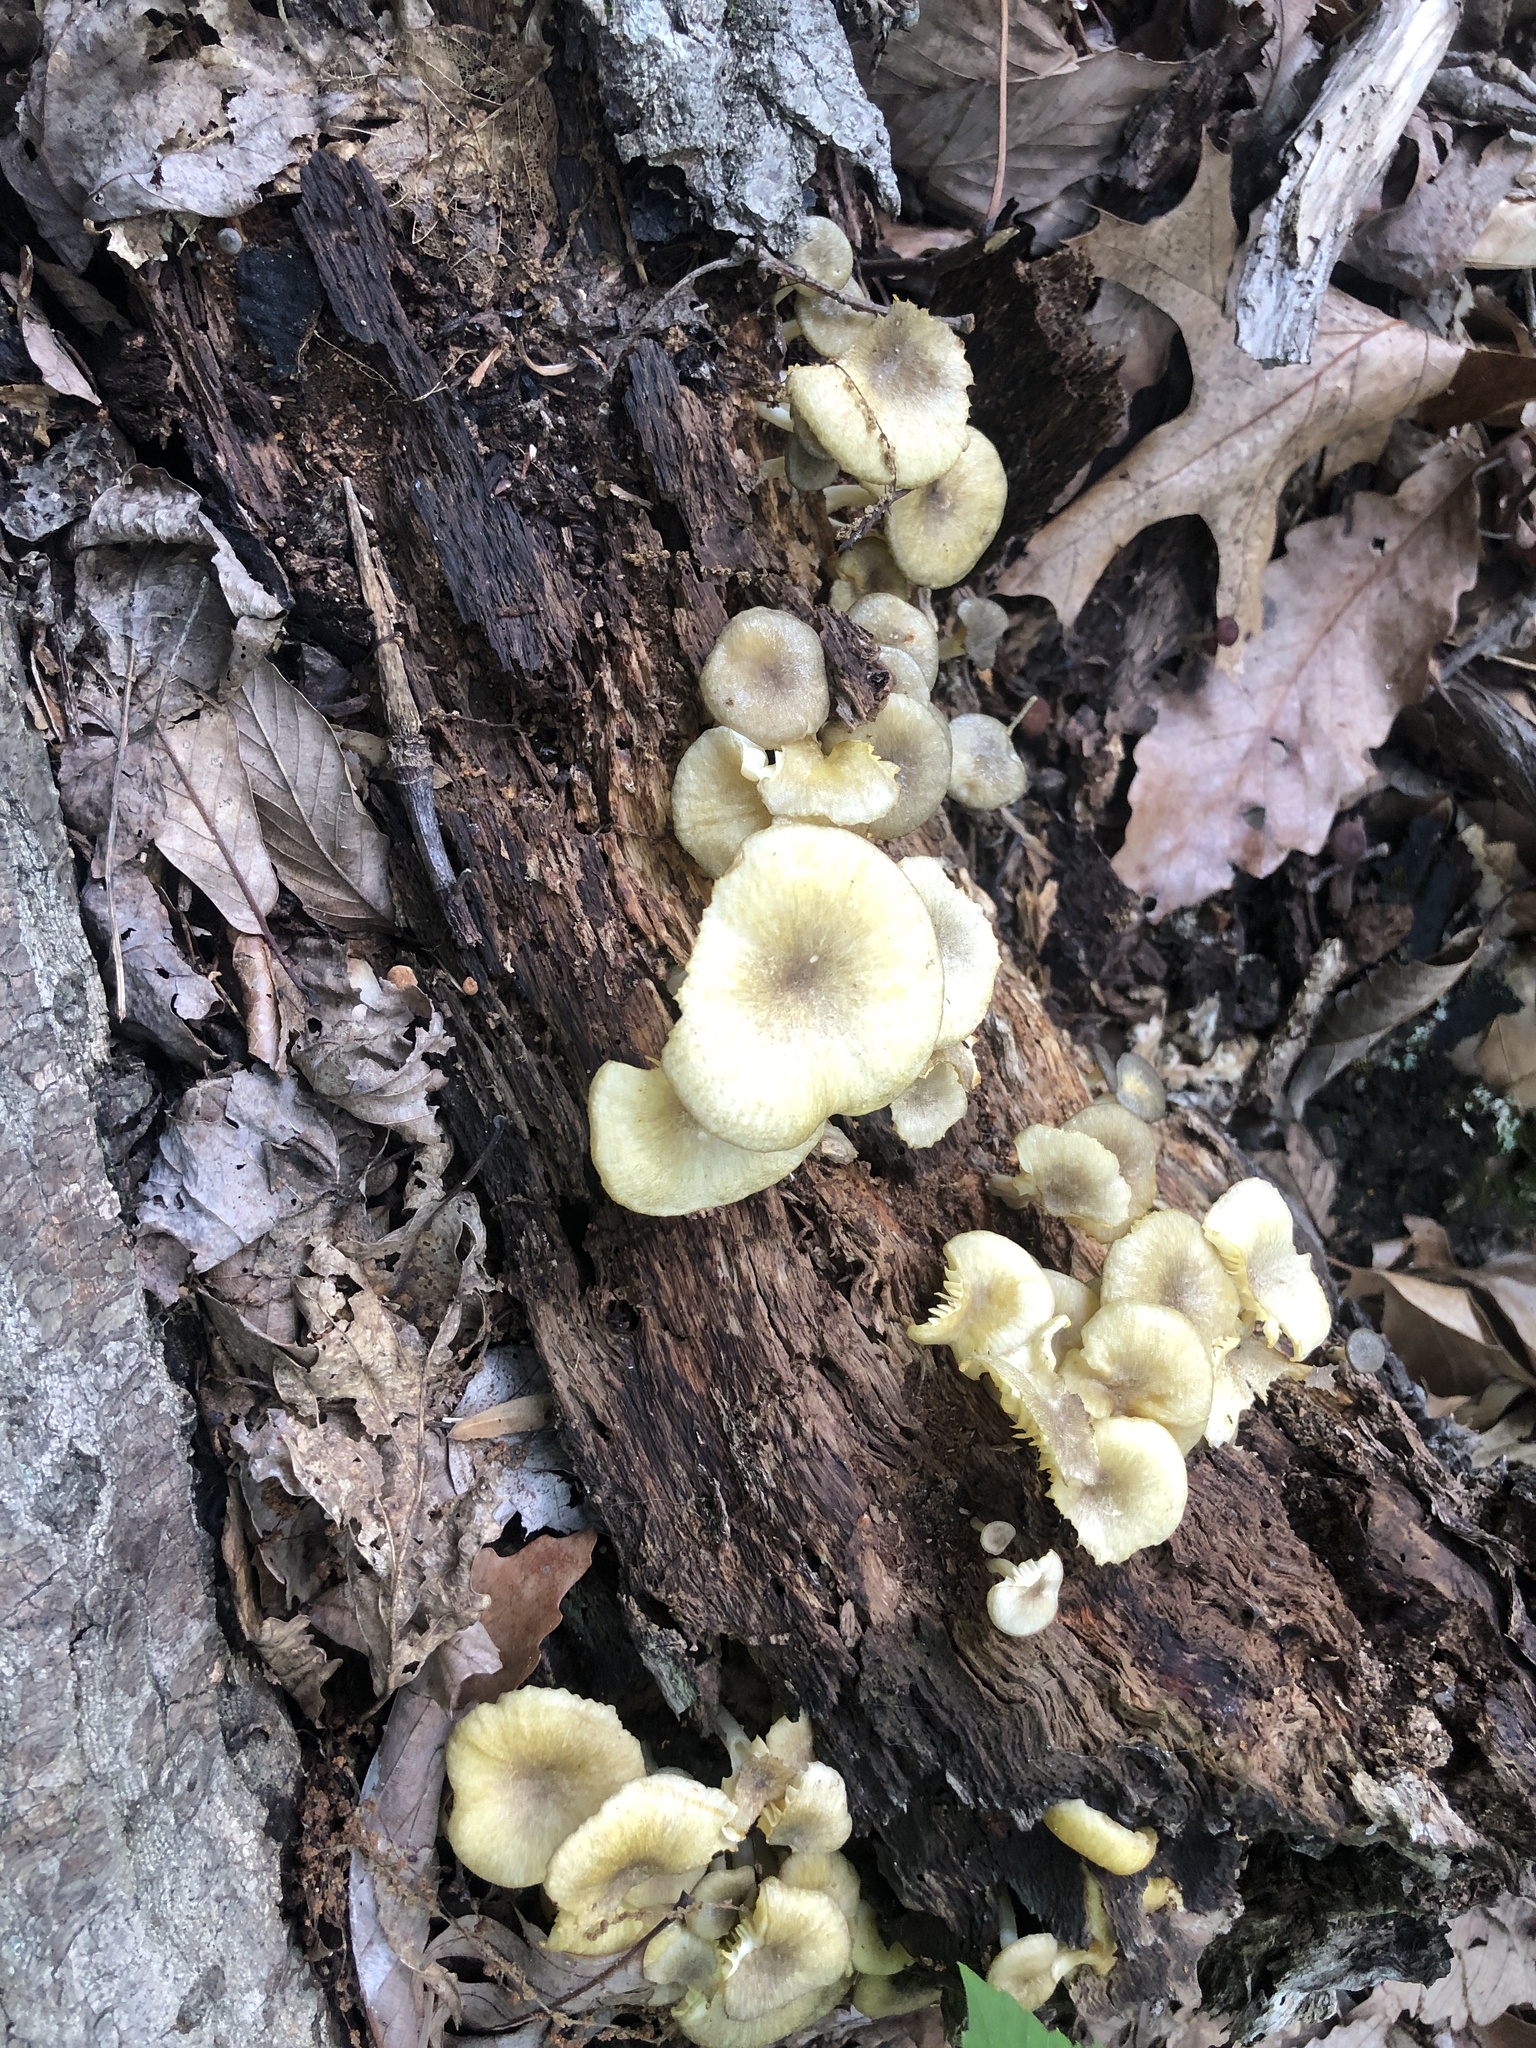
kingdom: Fungi
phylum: Basidiomycota
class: Agaricomycetes
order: Agaricales
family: Marasmiaceae
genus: Gerronema
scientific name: Gerronema strombodes
